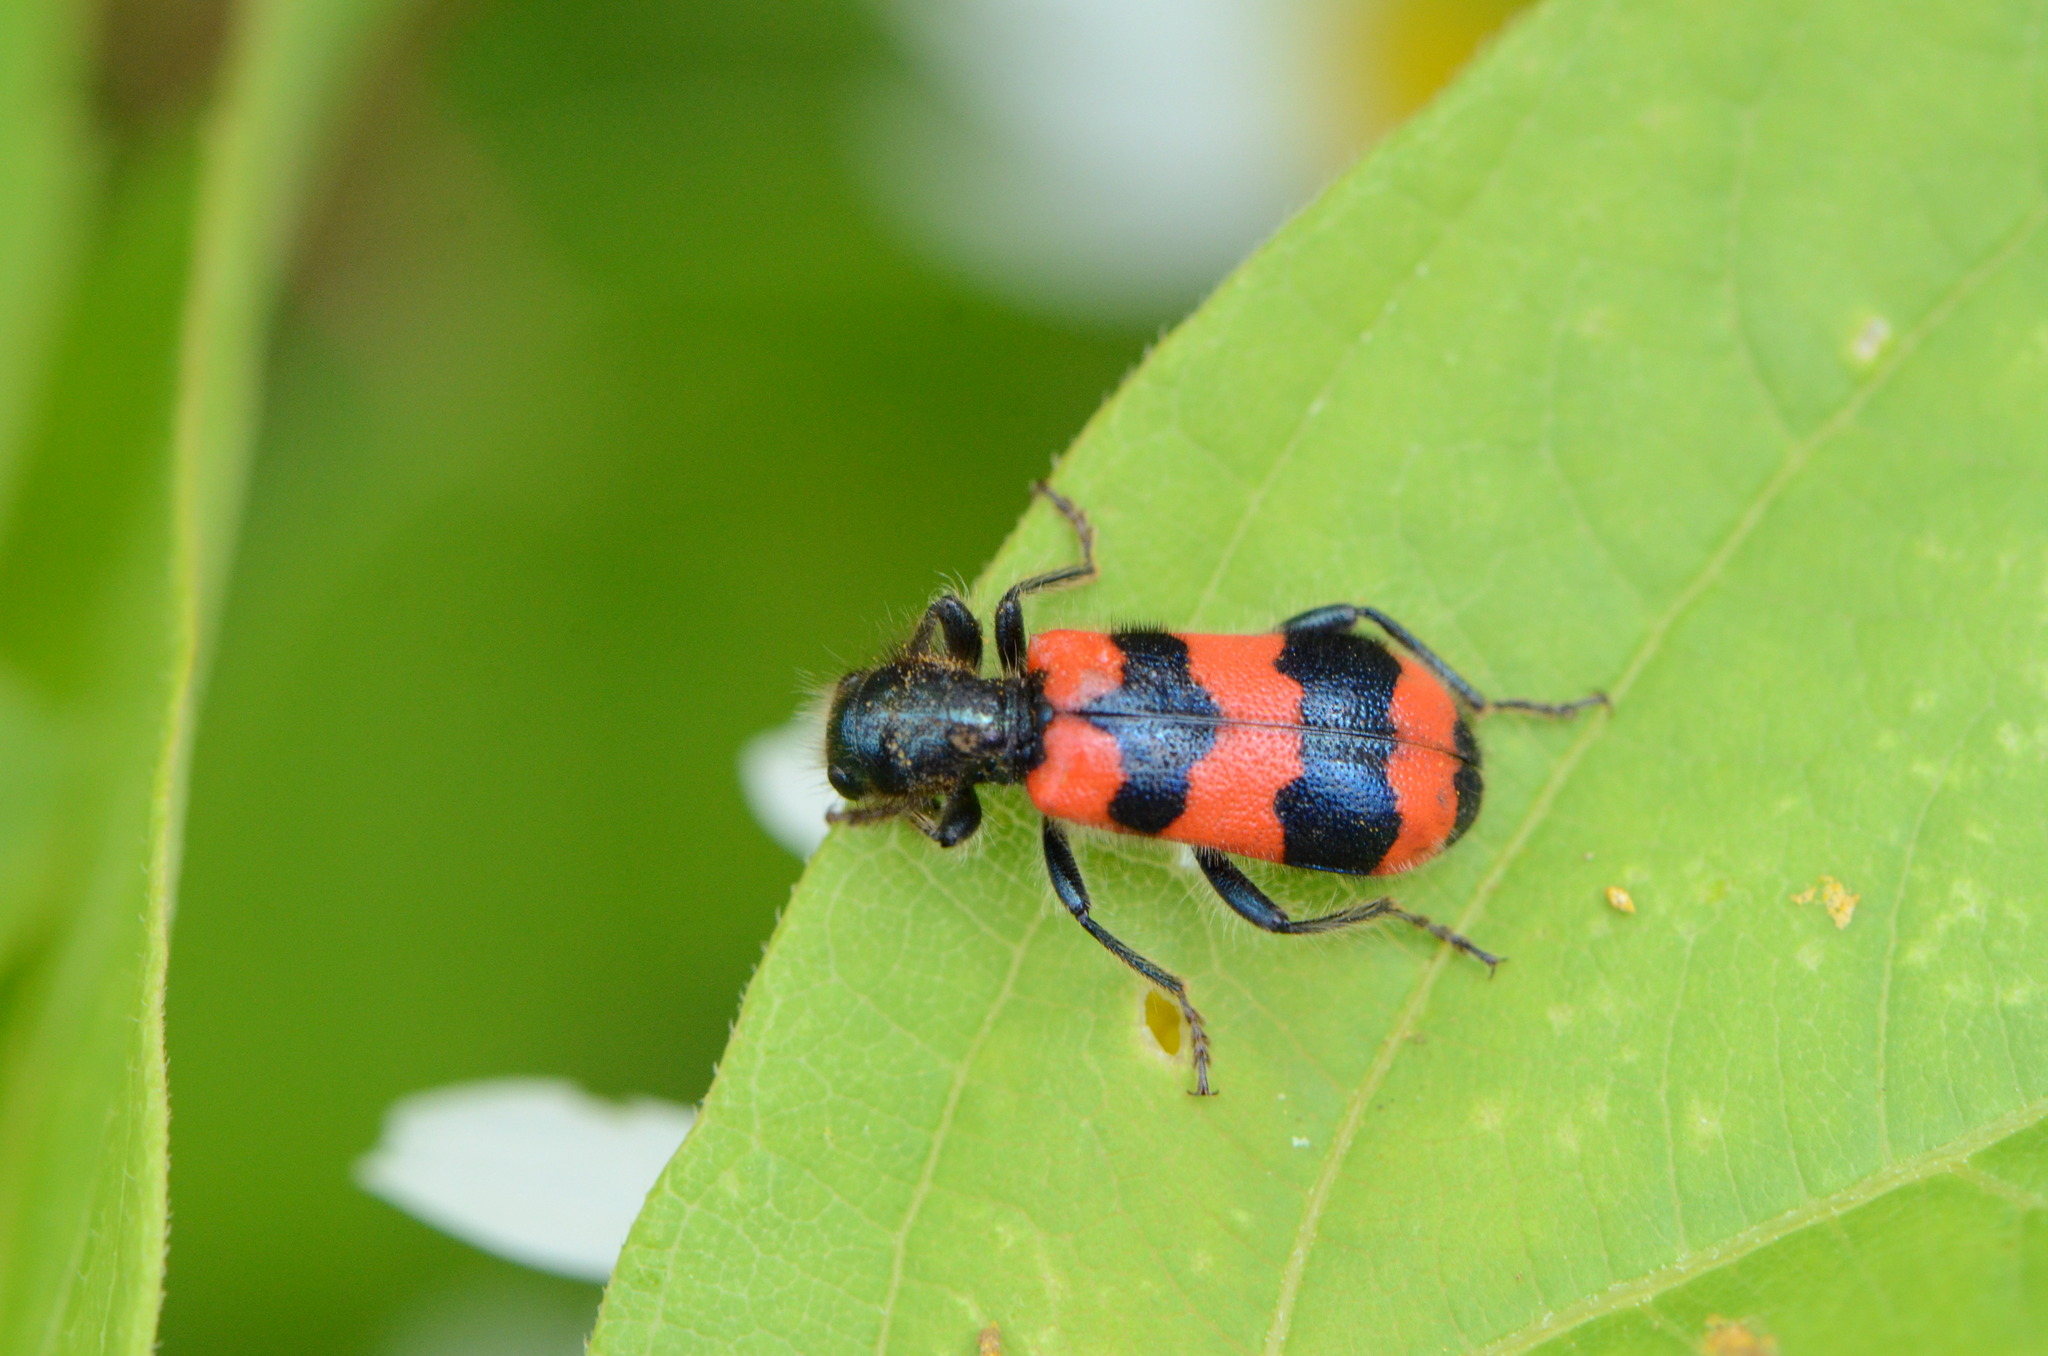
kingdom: Animalia
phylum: Arthropoda
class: Insecta
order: Coleoptera
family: Cleridae
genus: Trichodes
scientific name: Trichodes apiarius
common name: Bee-eating beetle
